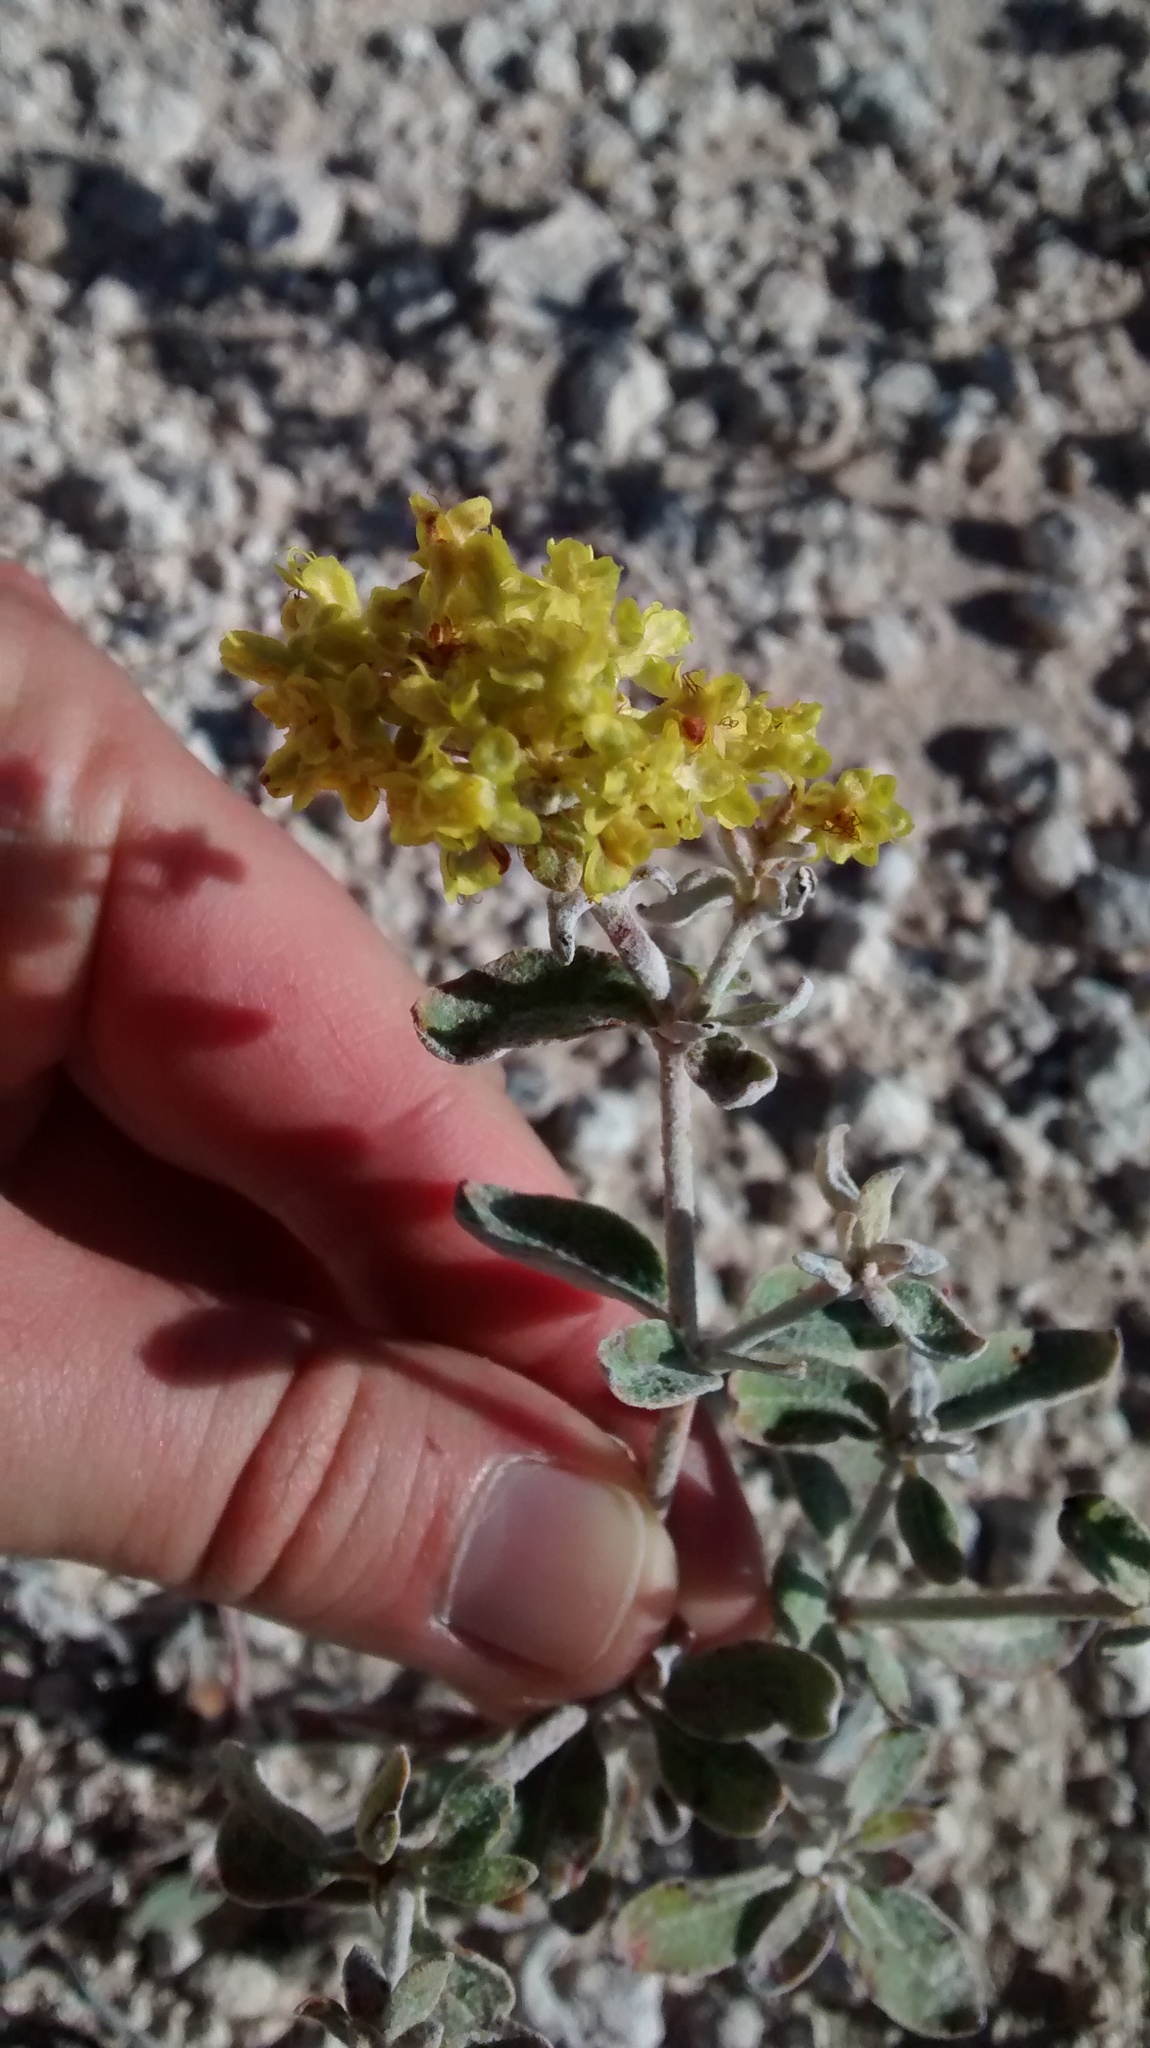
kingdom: Plantae
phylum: Tracheophyta
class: Magnoliopsida
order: Caryophyllales
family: Polygonaceae
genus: Eriogonum
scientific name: Eriogonum correllii
